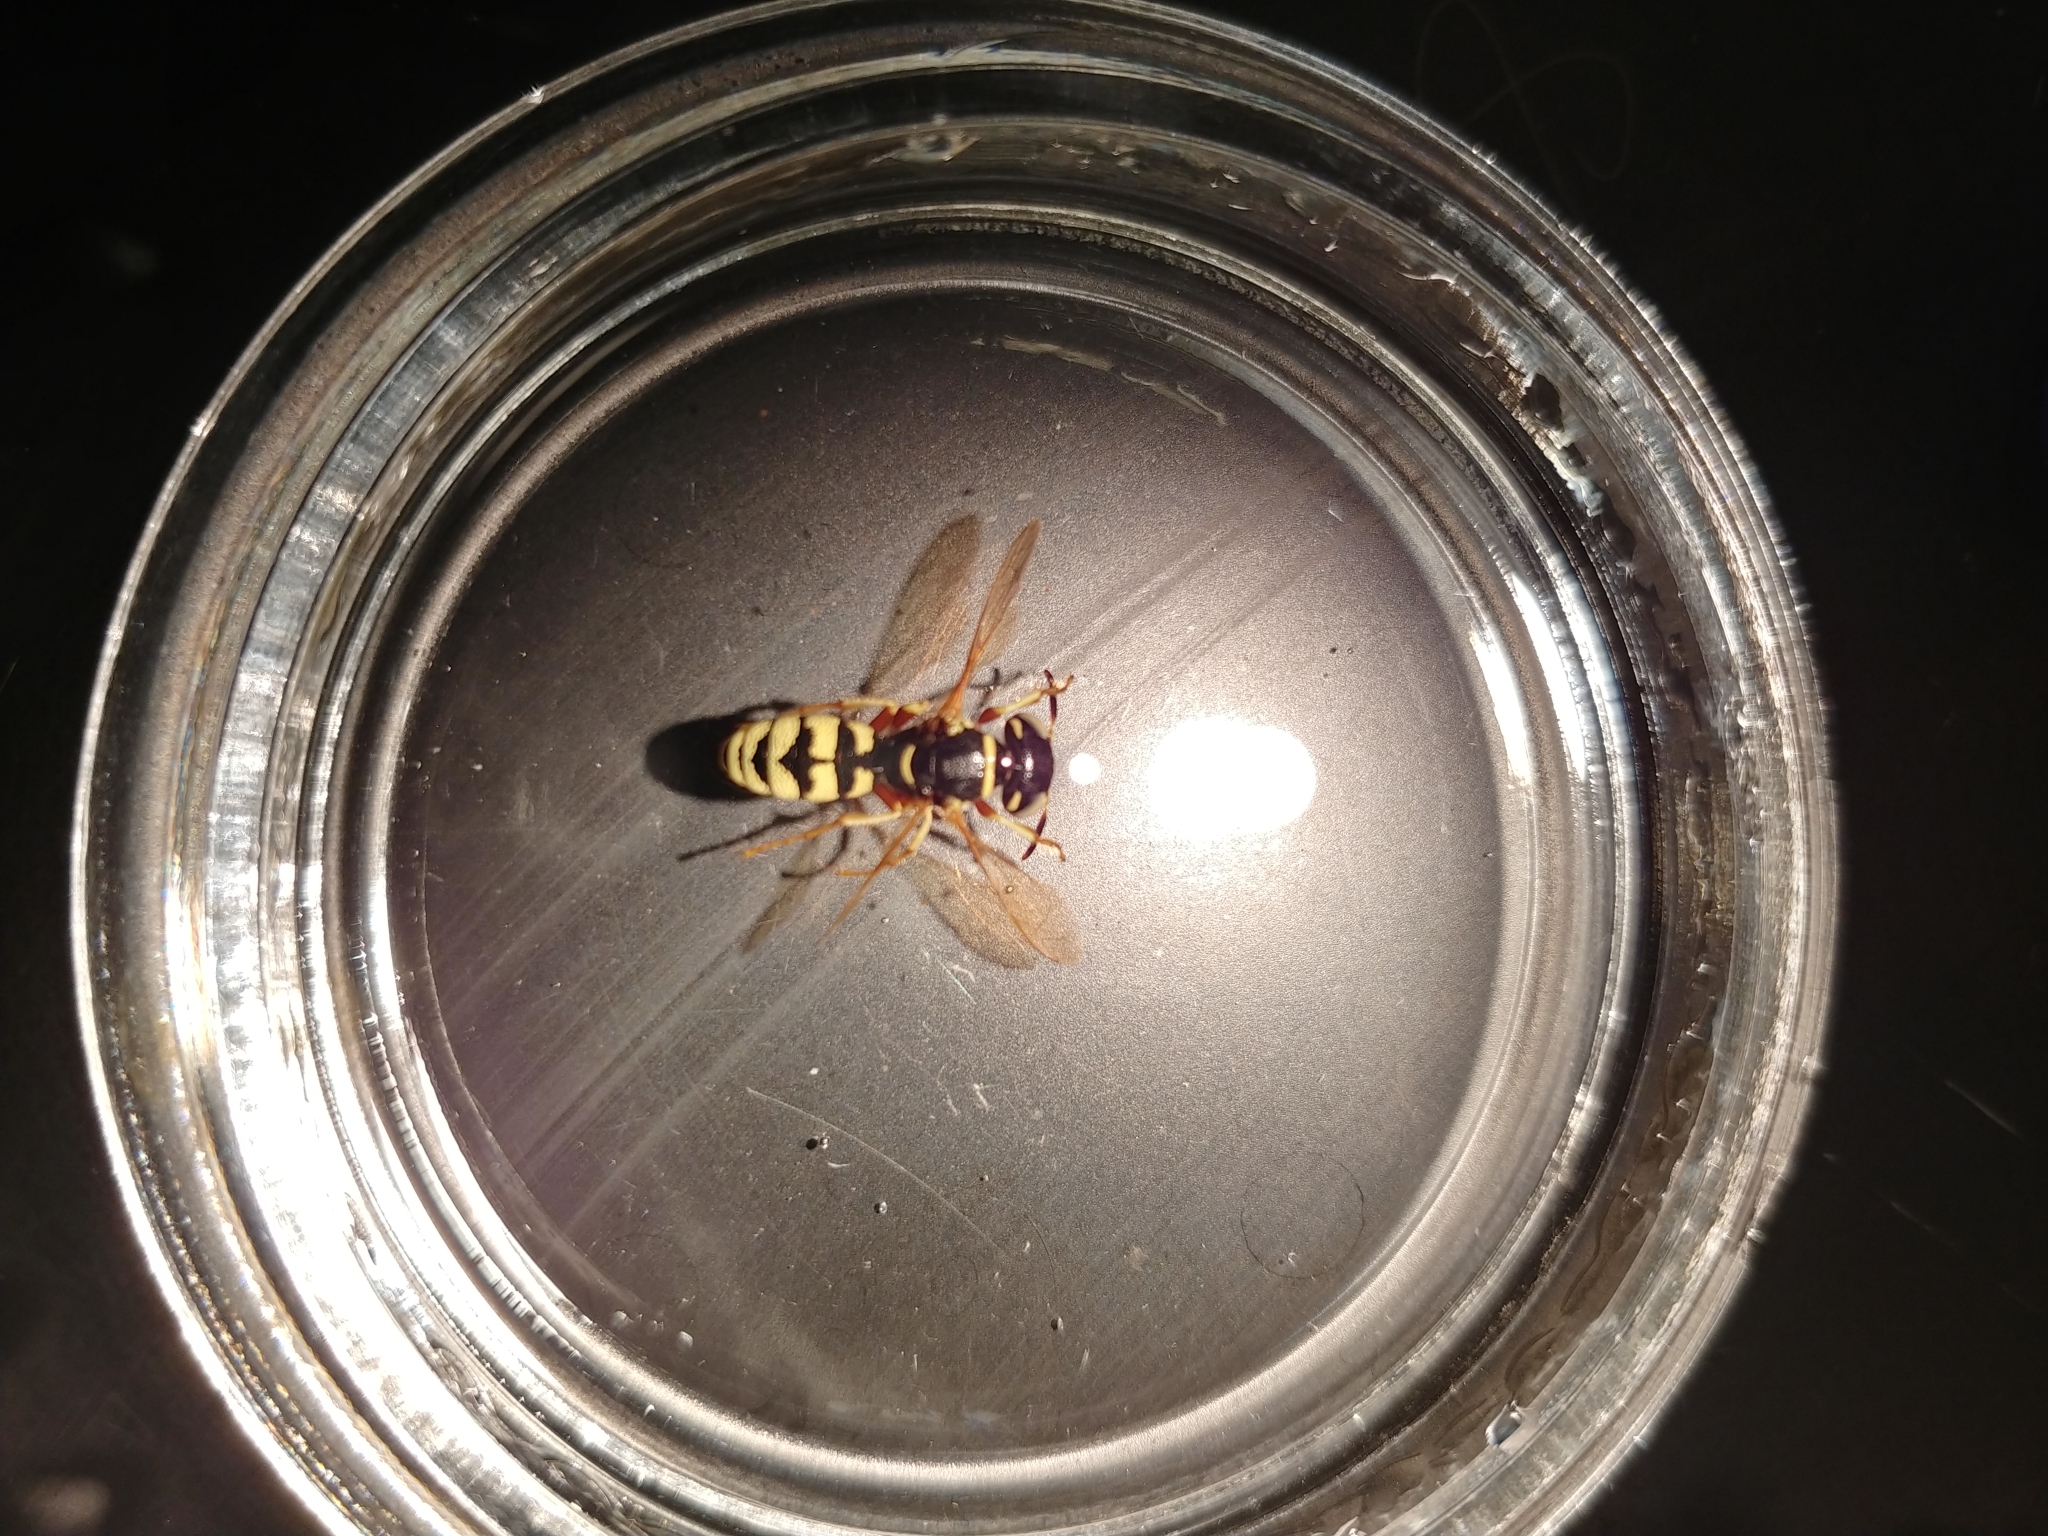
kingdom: Animalia
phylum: Arthropoda
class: Insecta
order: Hymenoptera
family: Crabronidae
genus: Philanthus
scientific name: Philanthus ventilabris
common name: Bee-killer wasp
